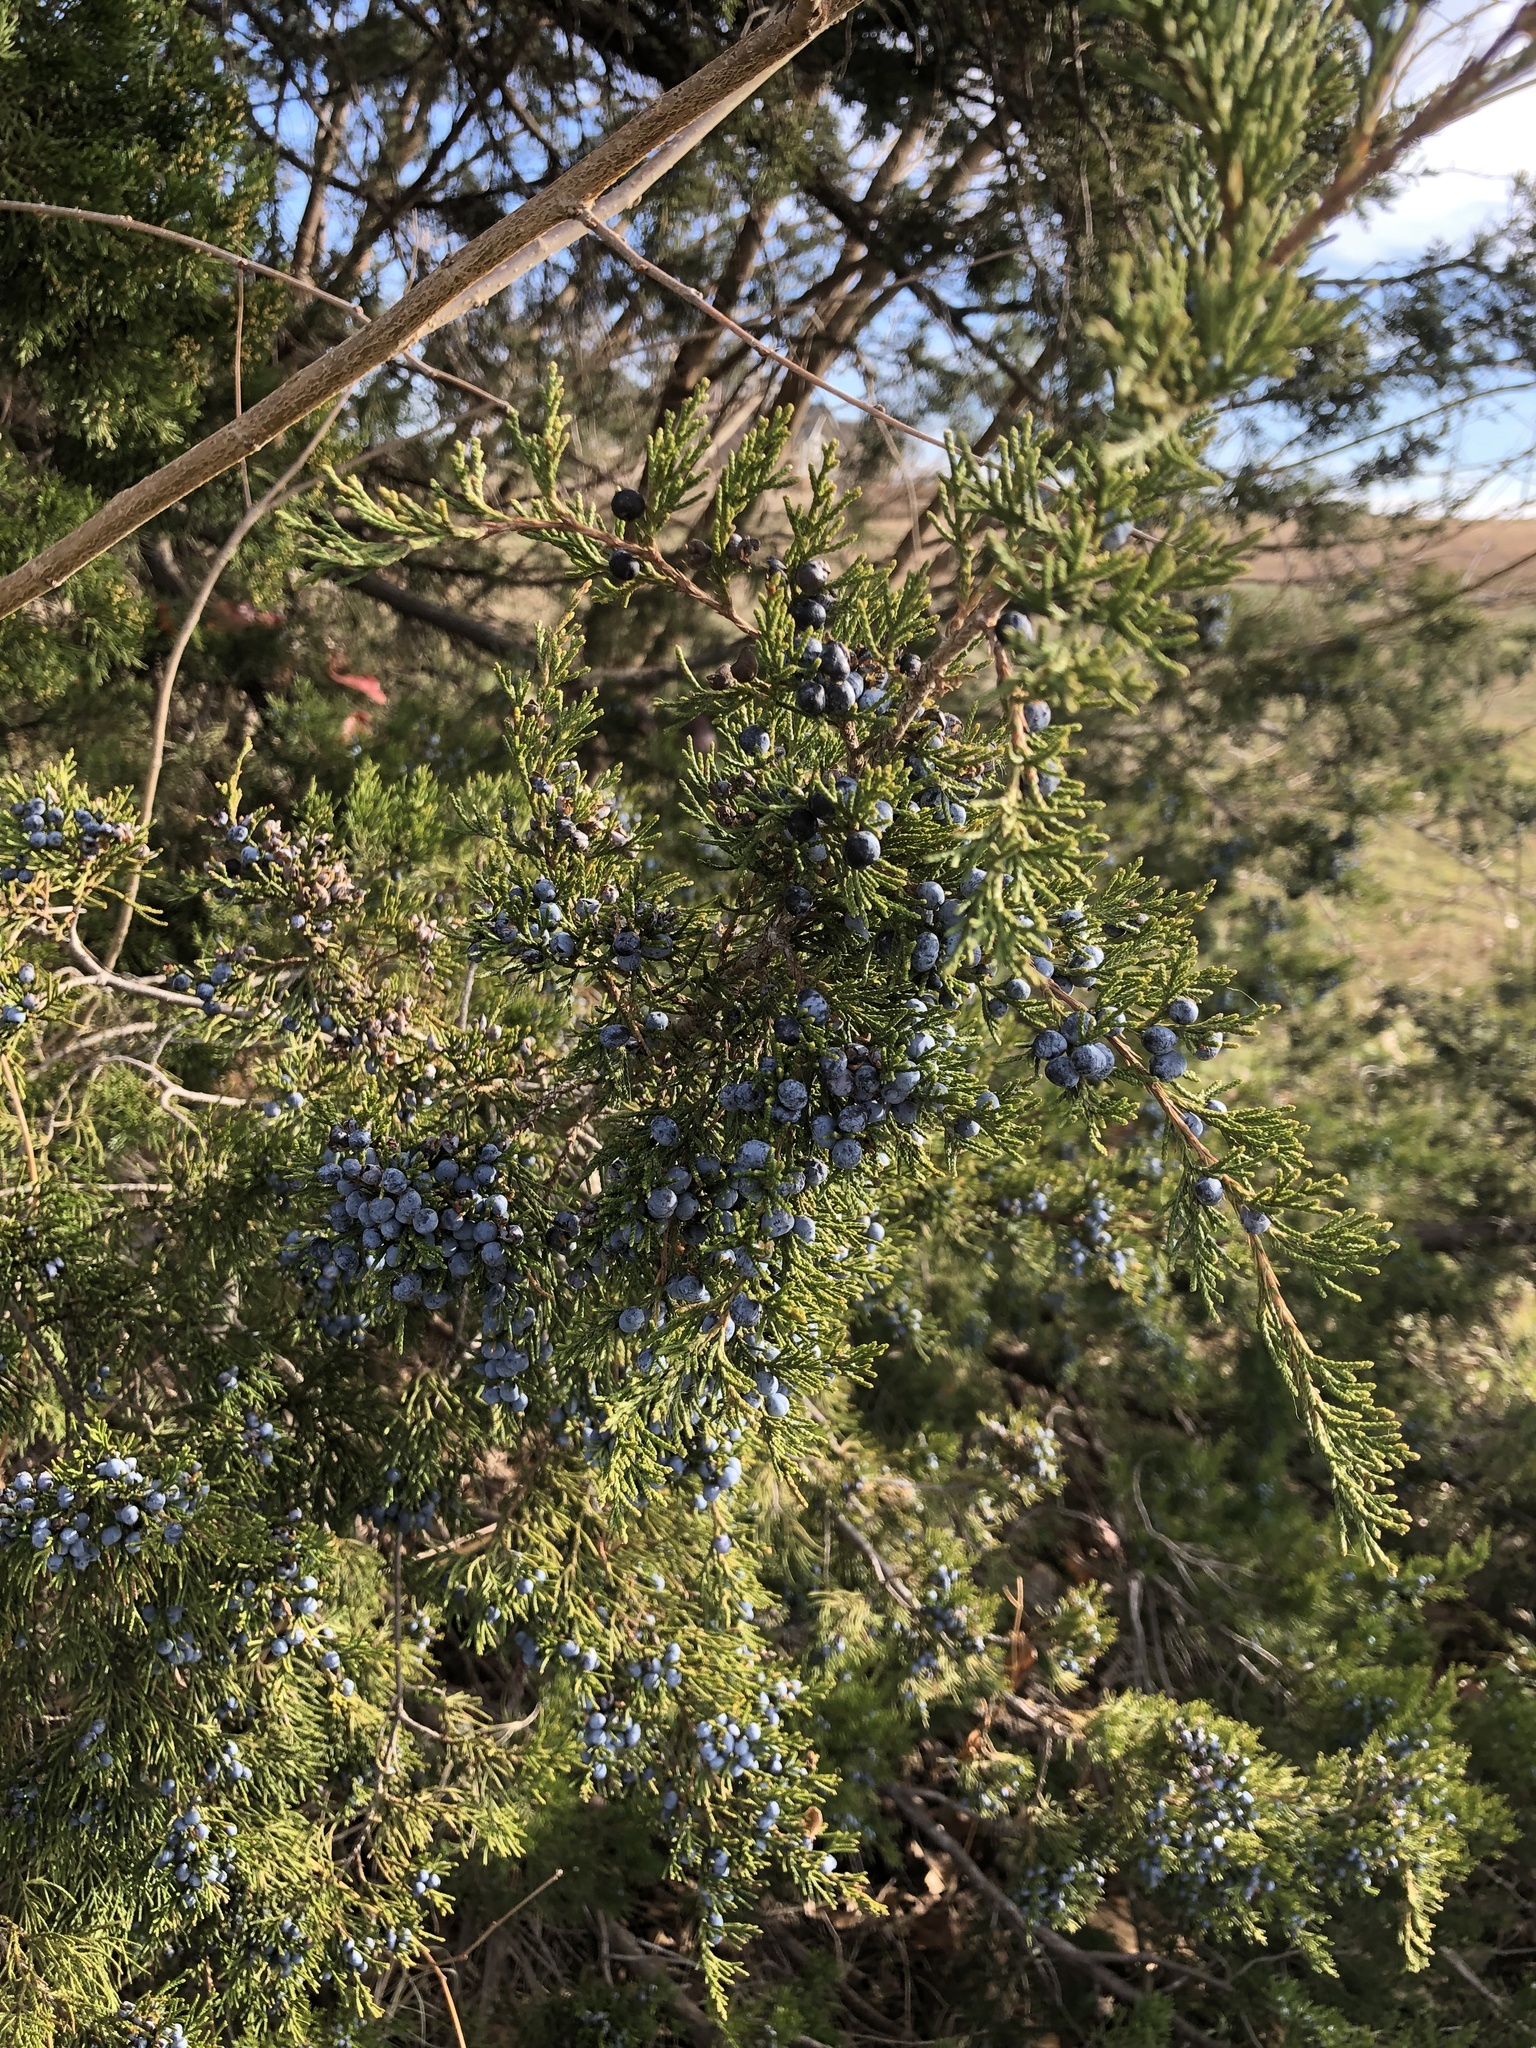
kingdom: Plantae
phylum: Tracheophyta
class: Pinopsida
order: Pinales
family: Cupressaceae
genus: Juniperus
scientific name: Juniperus virginiana
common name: Red juniper
